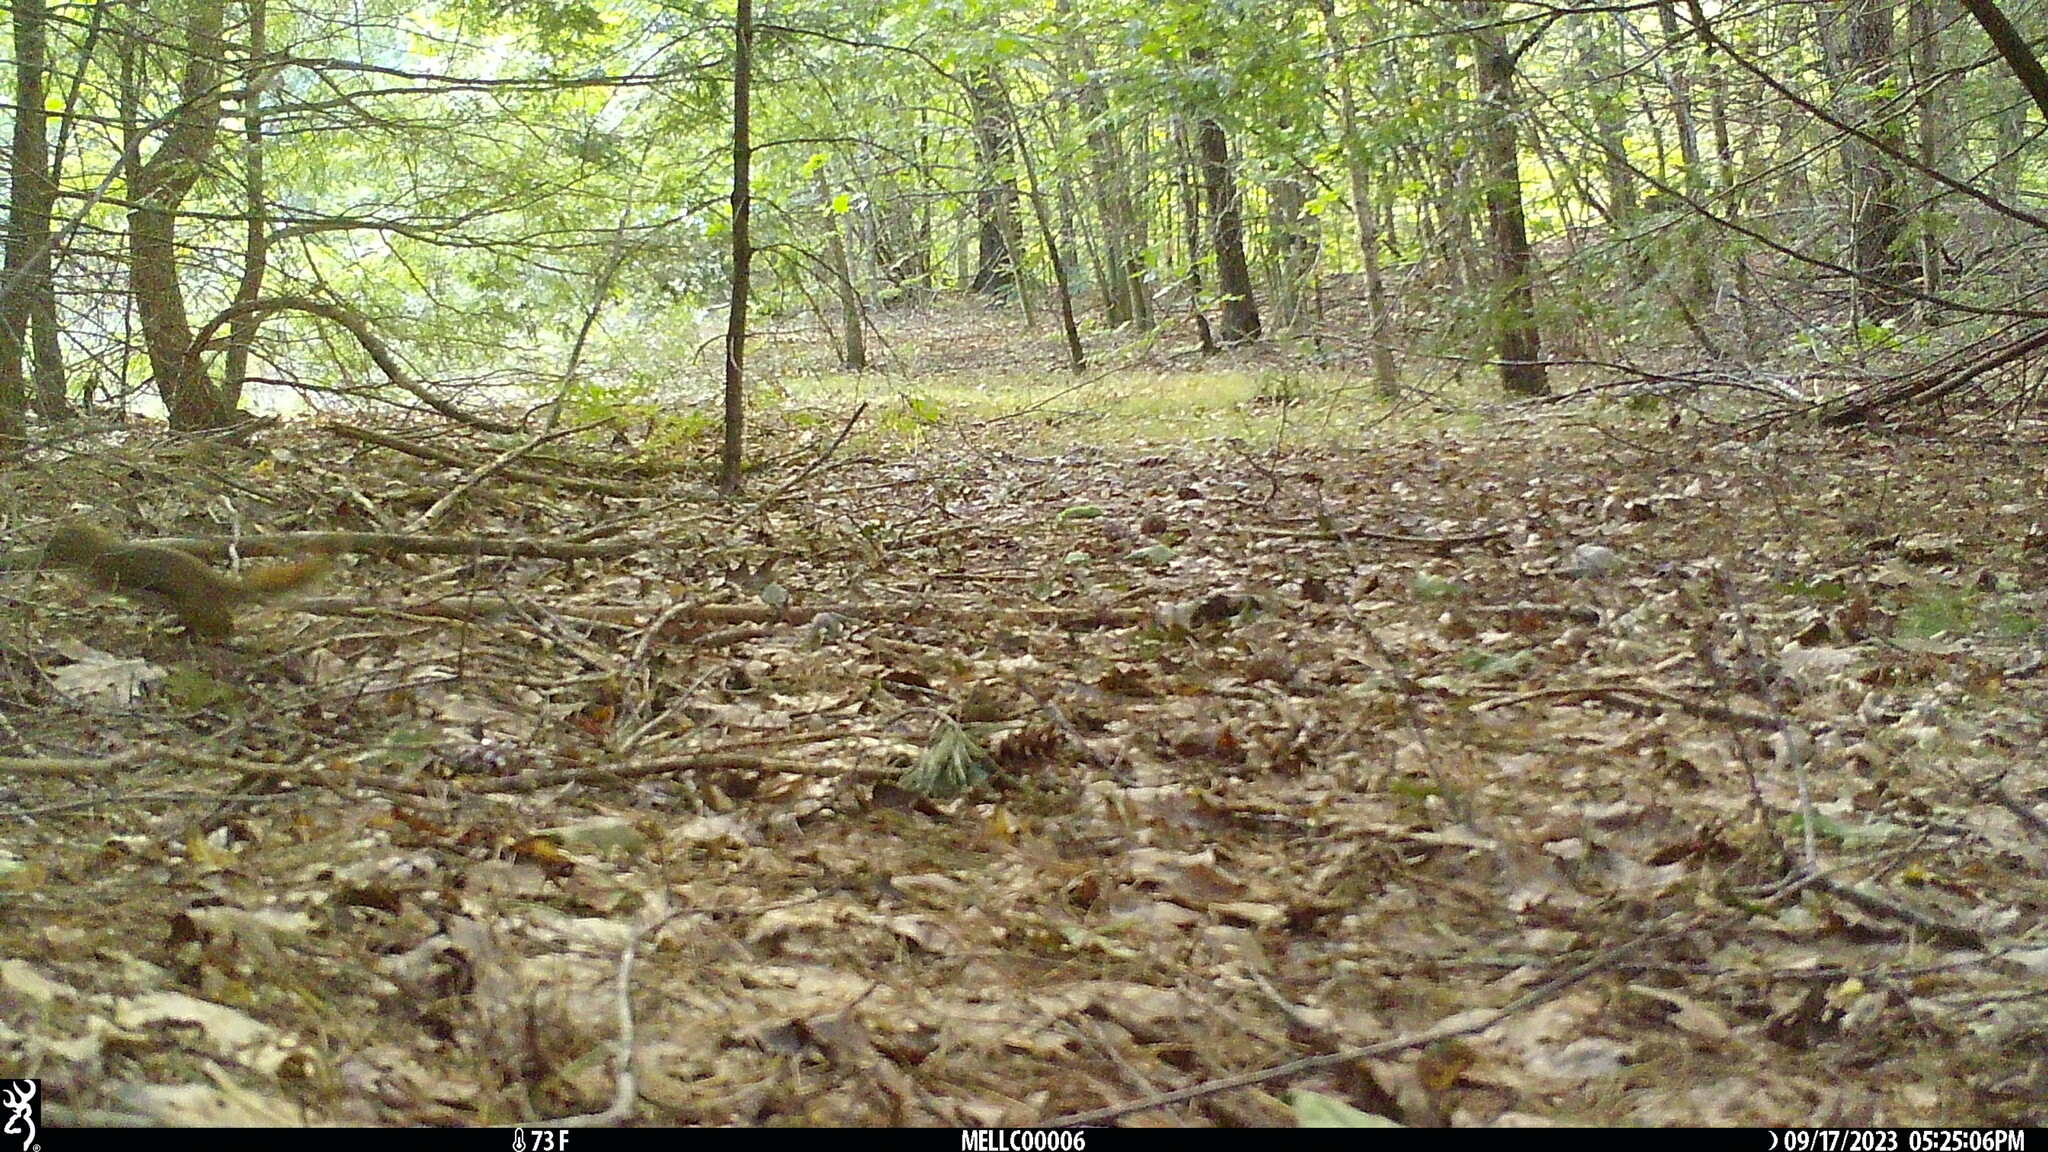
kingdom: Animalia
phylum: Chordata
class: Mammalia
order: Rodentia
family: Sciuridae
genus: Tamiasciurus
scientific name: Tamiasciurus hudsonicus
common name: Red squirrel
